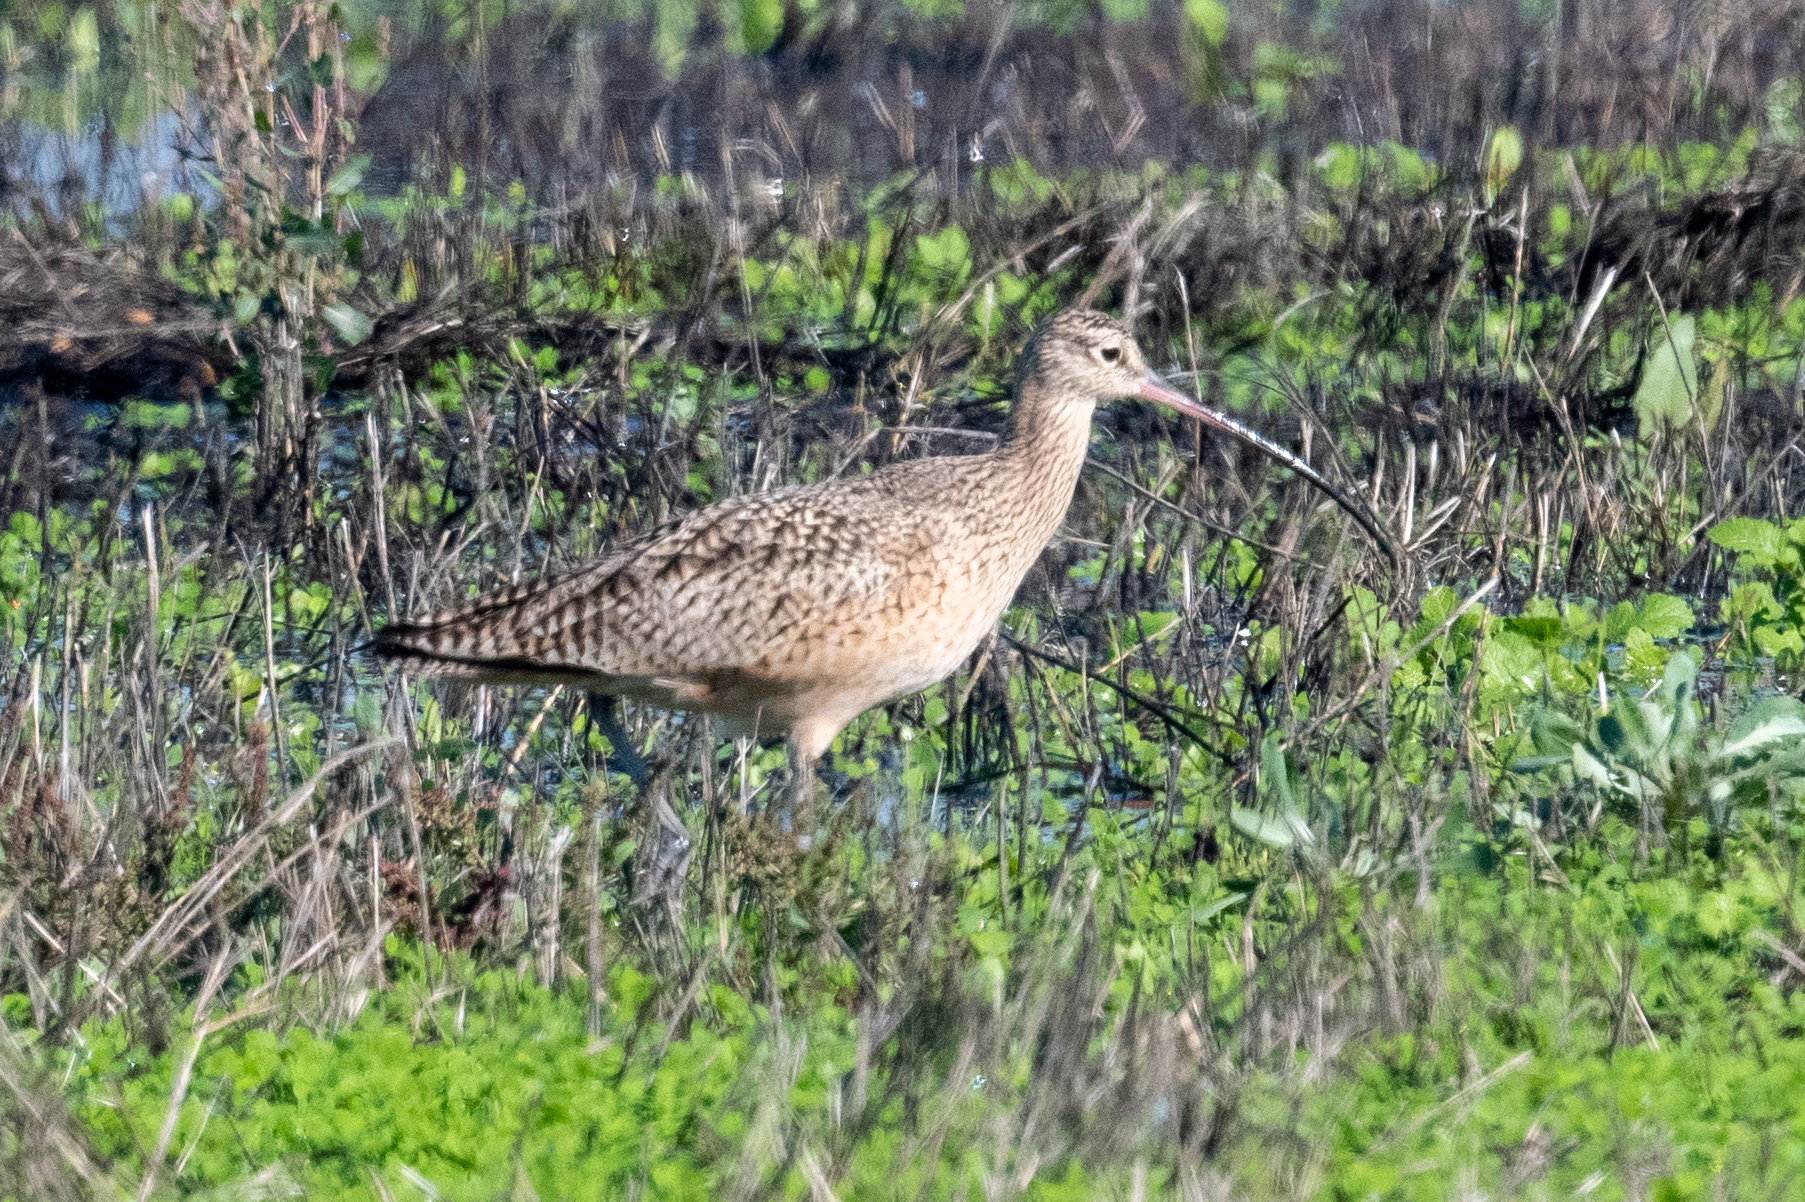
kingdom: Animalia
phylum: Chordata
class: Aves
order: Charadriiformes
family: Scolopacidae
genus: Numenius
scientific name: Numenius americanus
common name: Long-billed curlew
